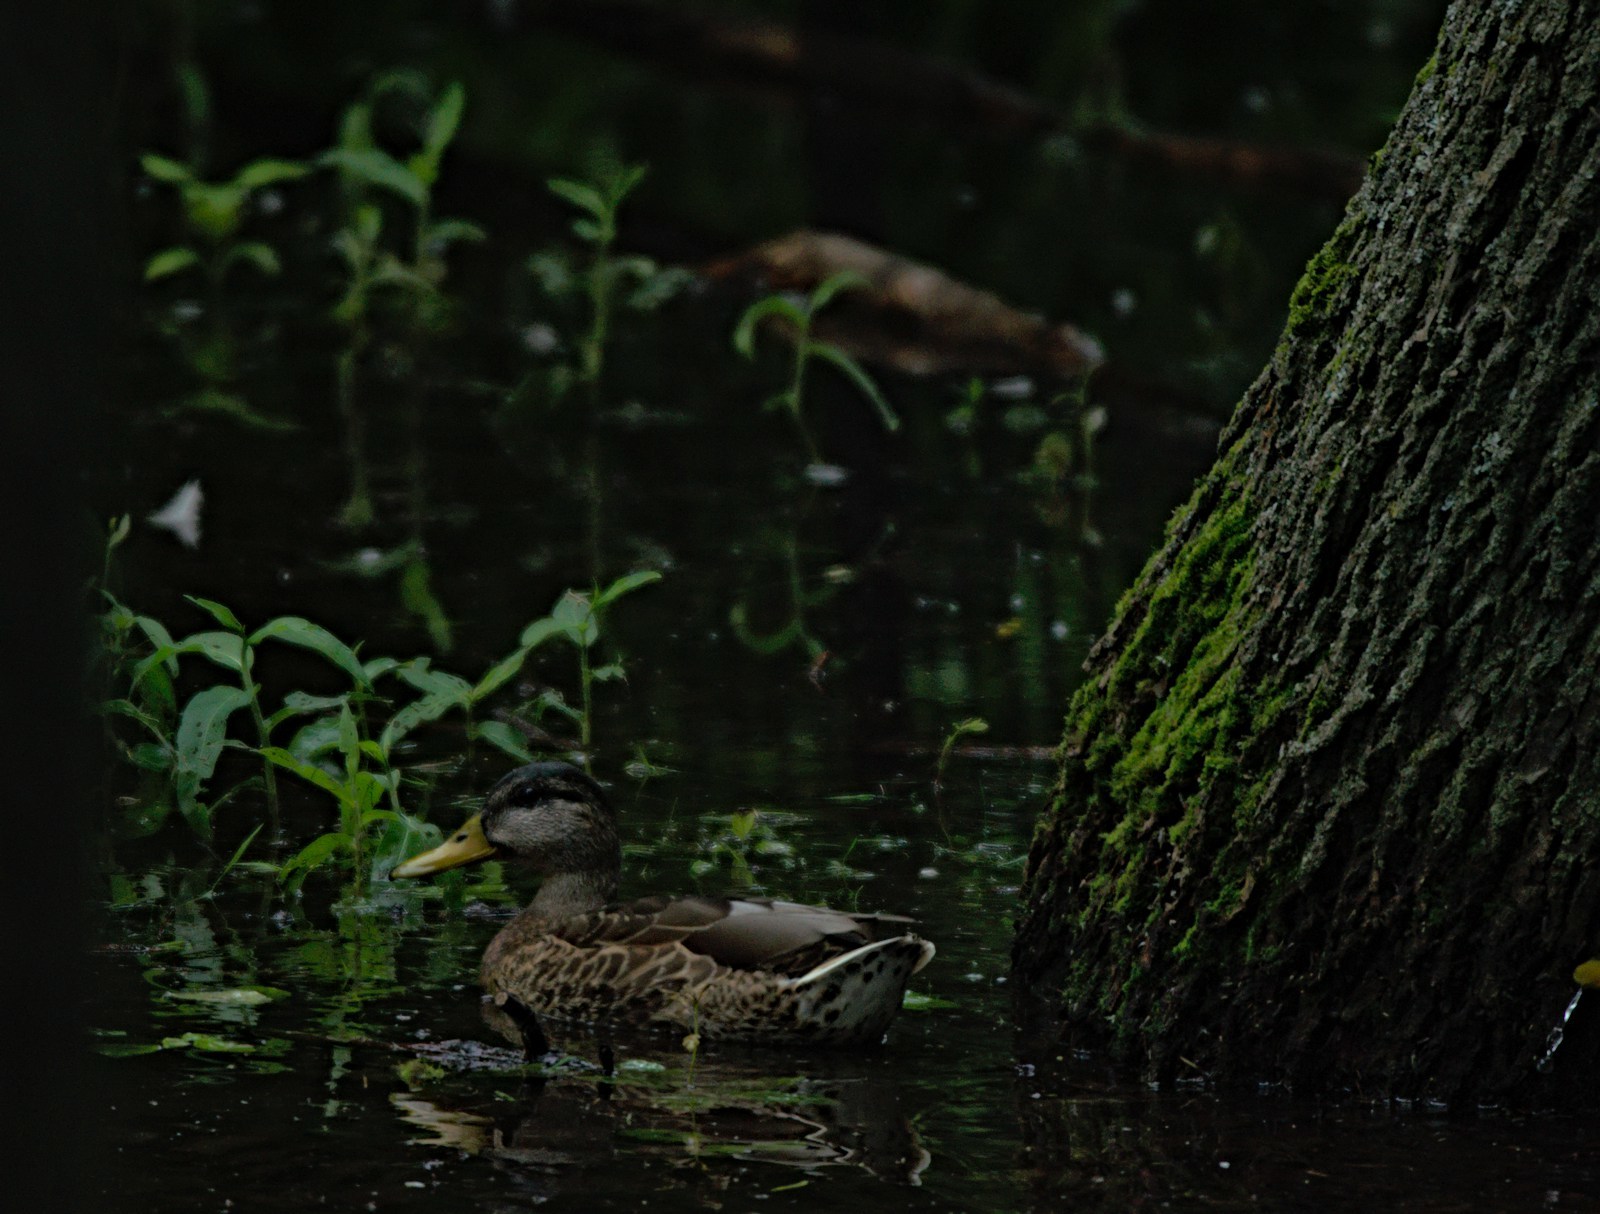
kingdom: Animalia
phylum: Chordata
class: Aves
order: Anseriformes
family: Anatidae
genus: Anas
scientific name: Anas platyrhynchos
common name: Mallard
